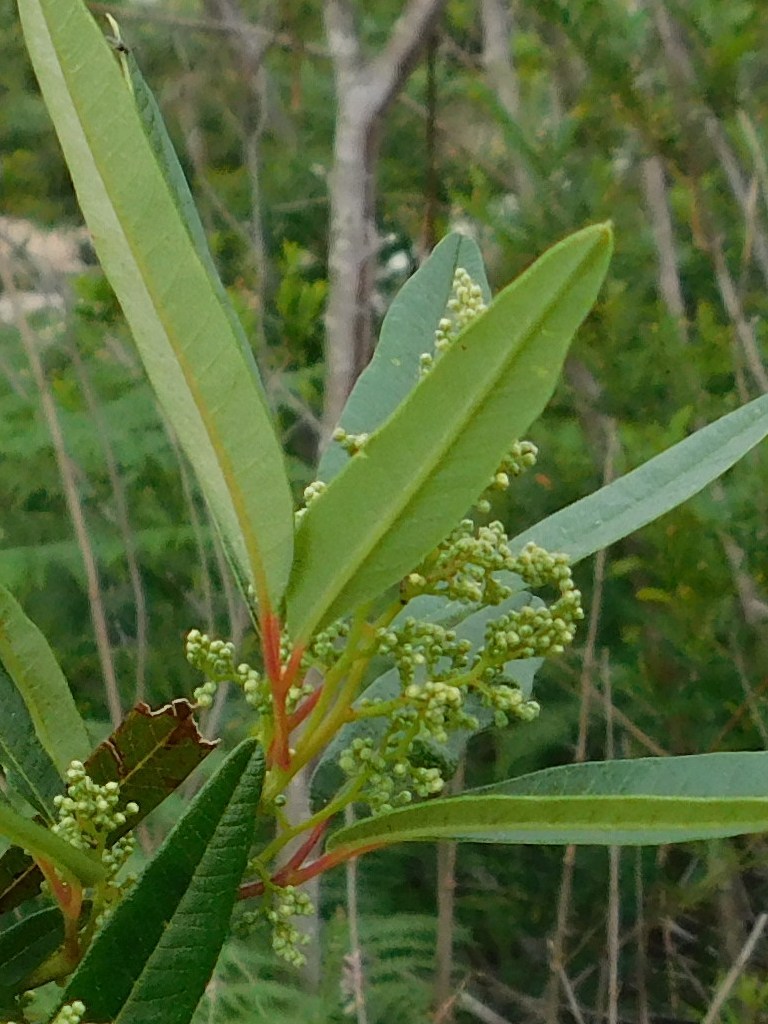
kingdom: Plantae
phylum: Tracheophyta
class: Magnoliopsida
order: Sapindales
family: Anacardiaceae
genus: Searsia
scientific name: Searsia angustifolia
